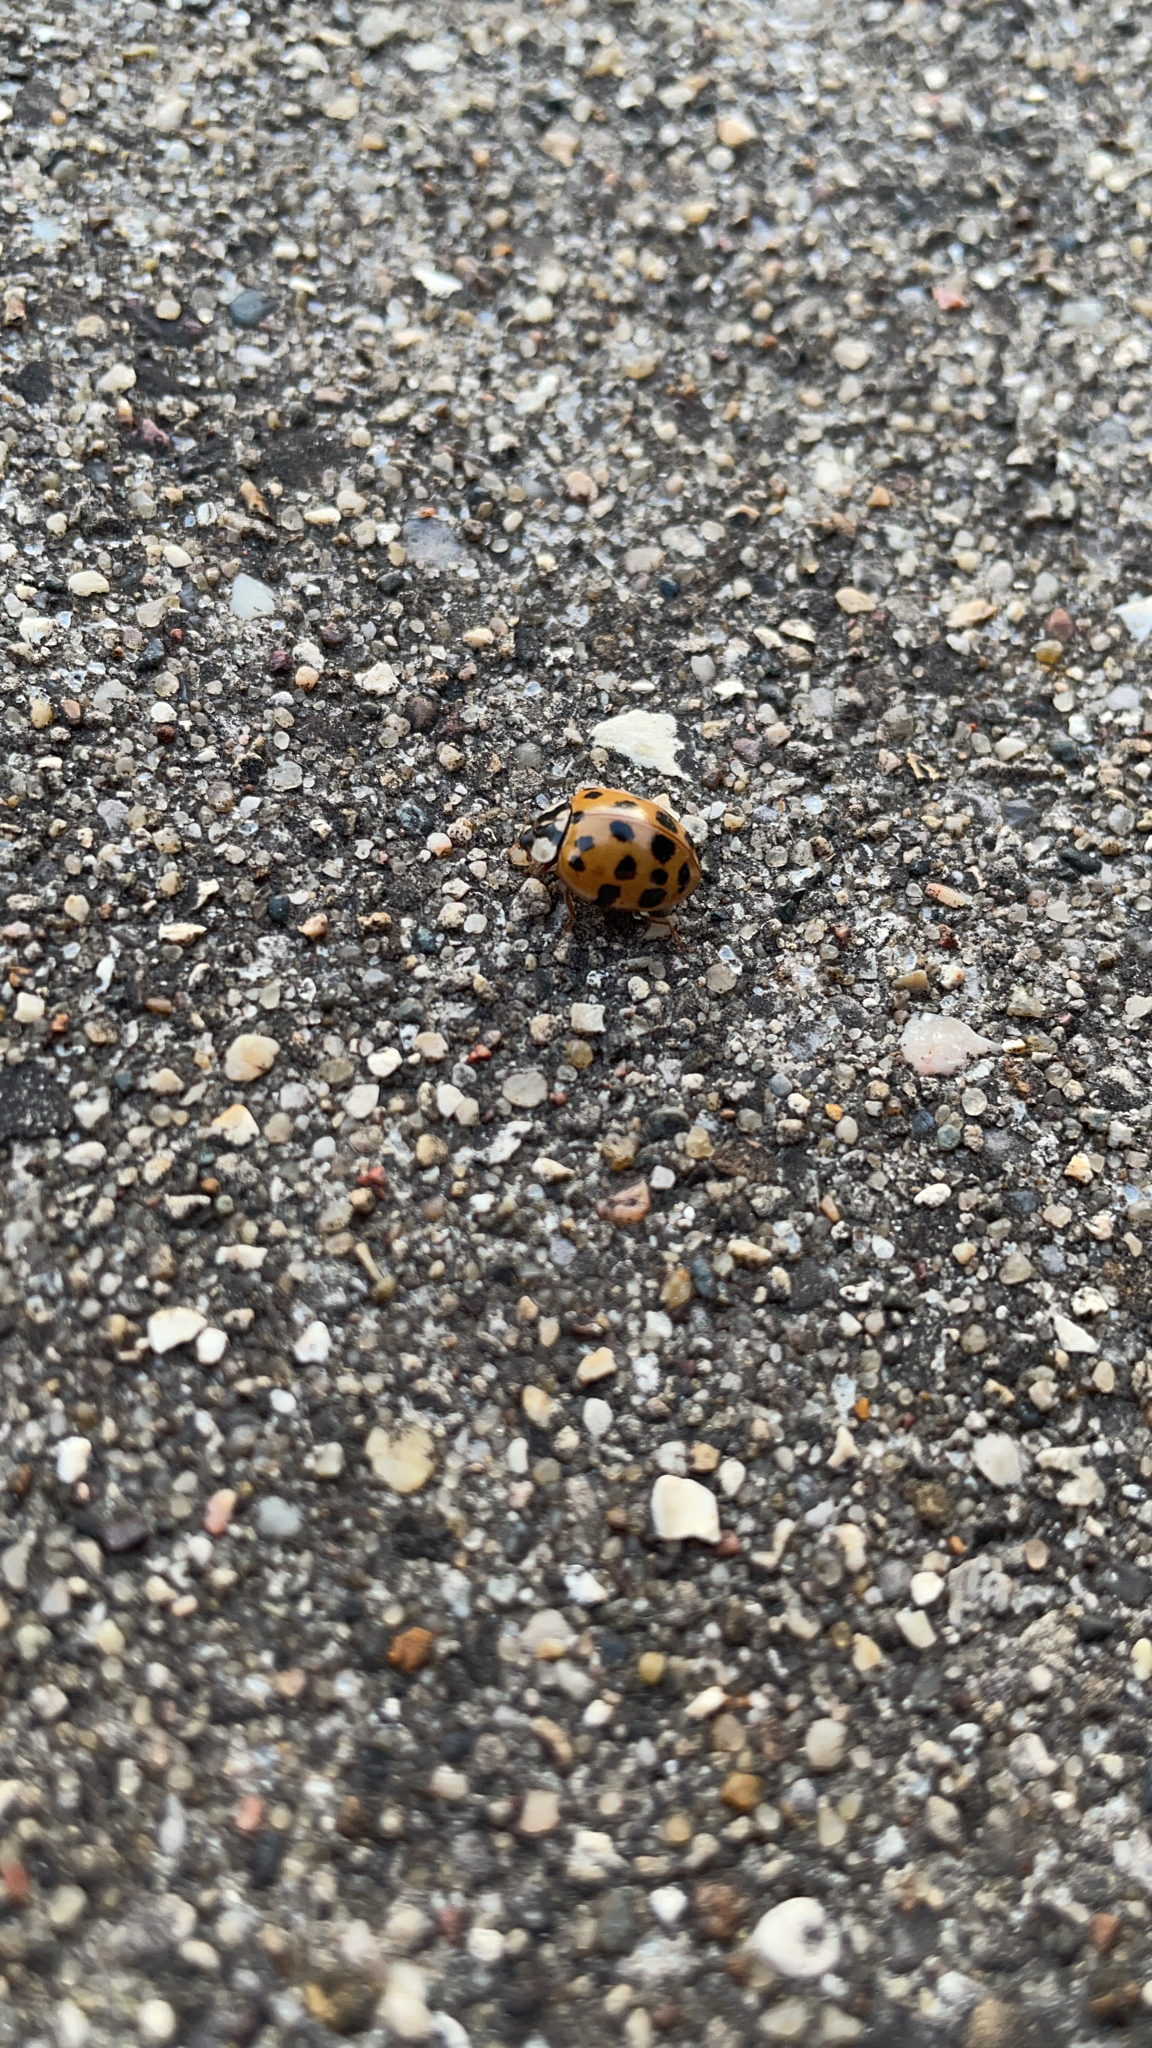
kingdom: Animalia
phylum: Arthropoda
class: Insecta
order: Coleoptera
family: Coccinellidae
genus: Harmonia
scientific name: Harmonia axyridis
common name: Harlequin ladybird
